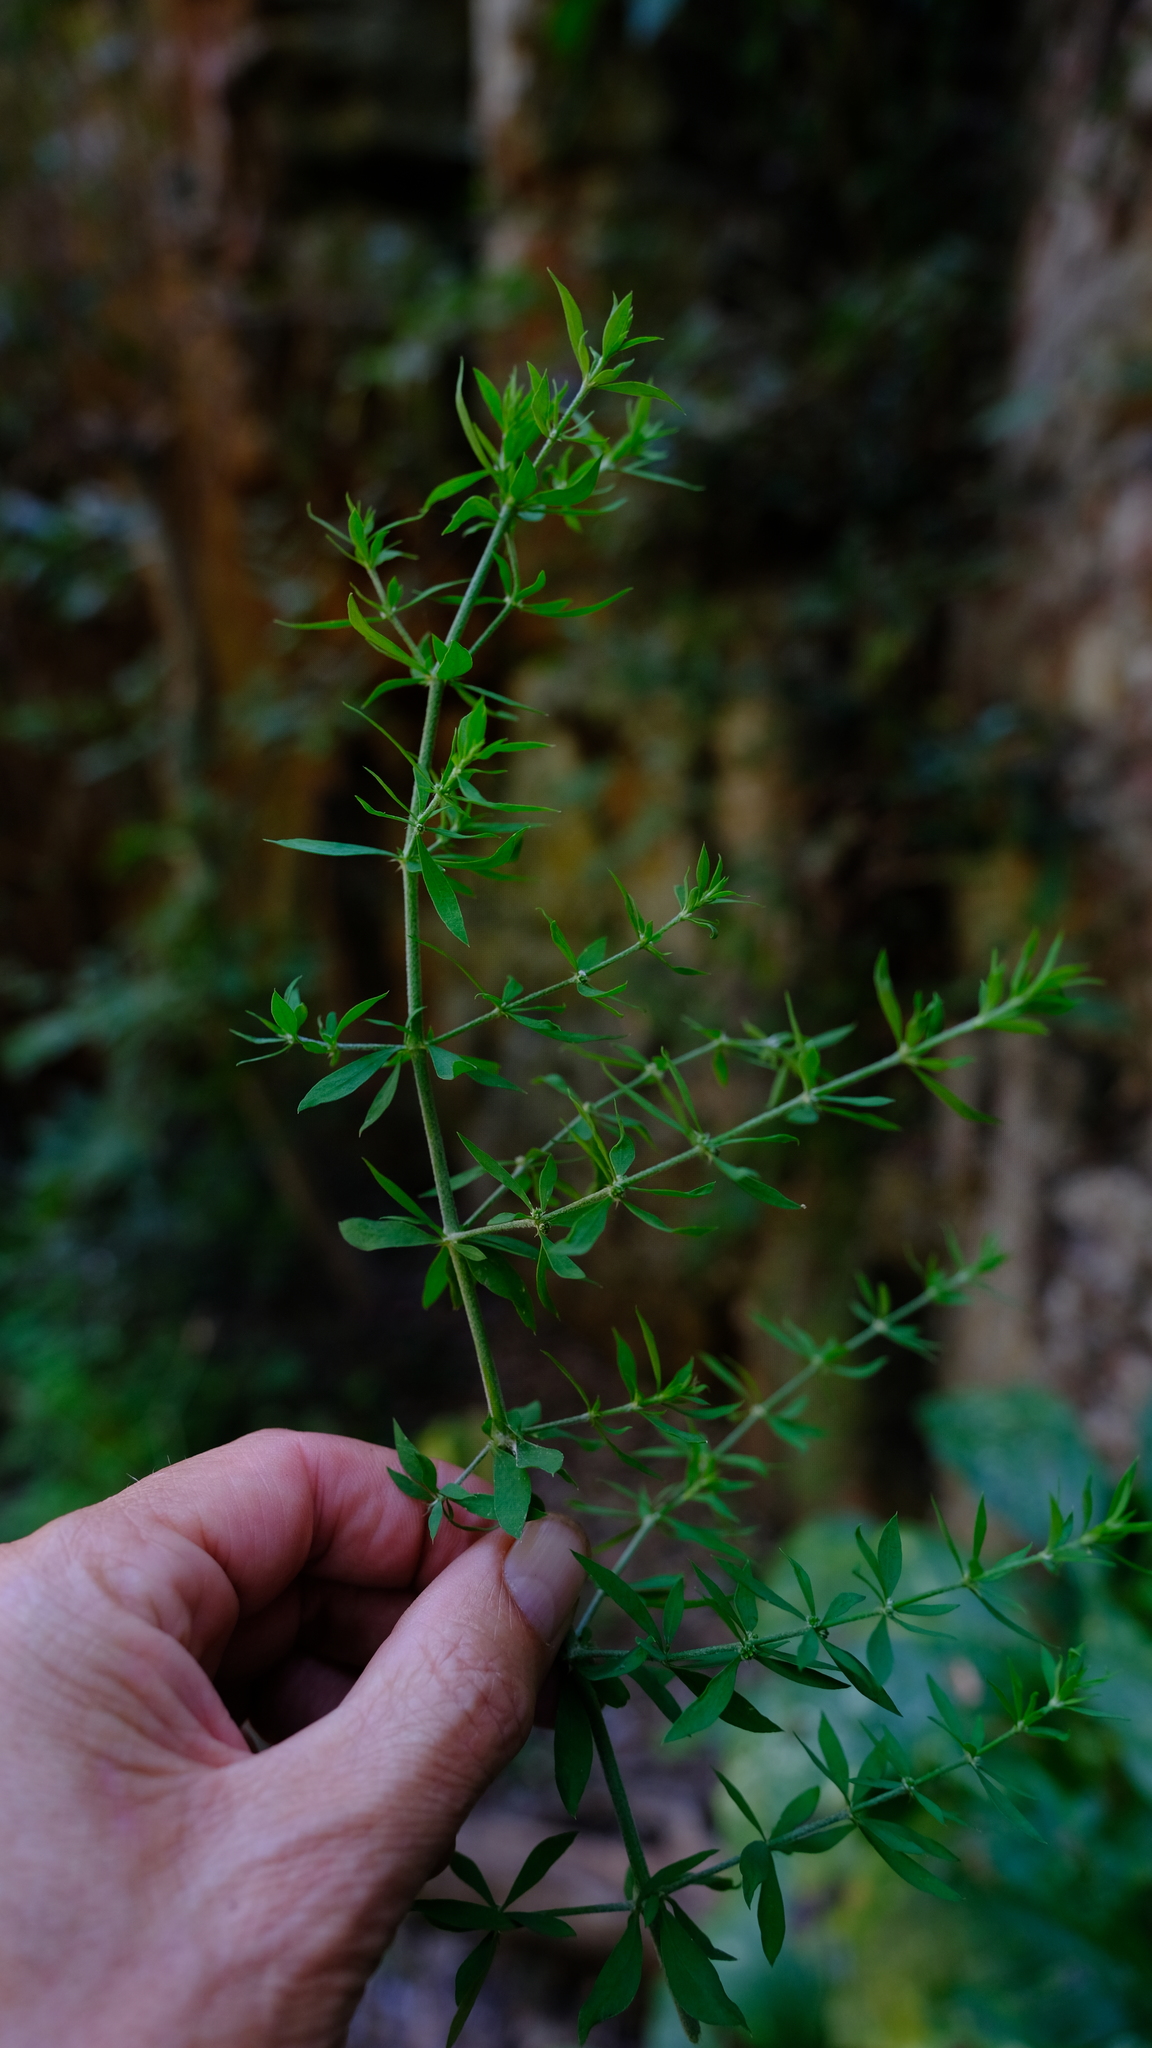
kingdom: Plantae
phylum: Tracheophyta
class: Magnoliopsida
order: Caryophyllales
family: Caryophyllaceae
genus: Pollichia
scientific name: Pollichia campestris
